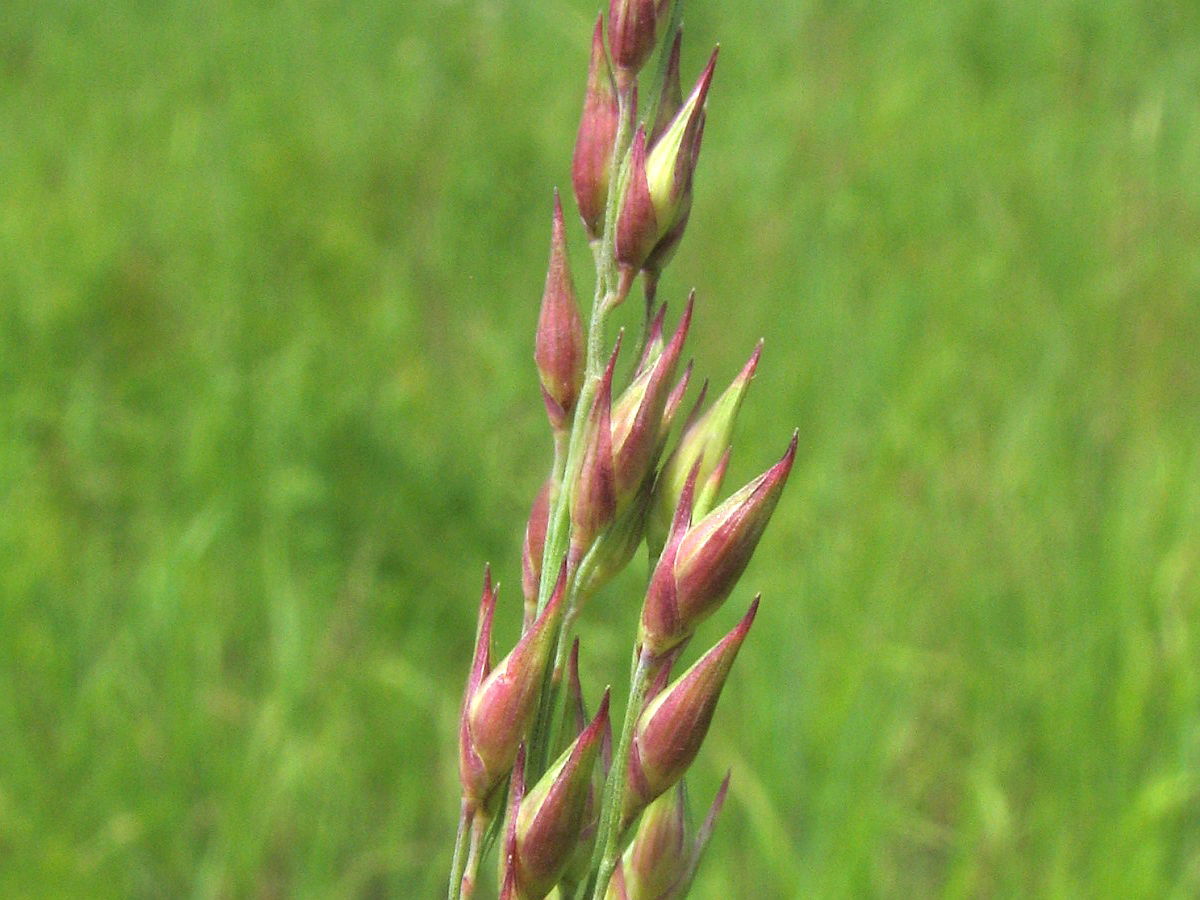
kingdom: Plantae
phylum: Tracheophyta
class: Liliopsida
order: Poales
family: Poaceae
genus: Panicum
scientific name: Panicum virgatum
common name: Switchgrass
